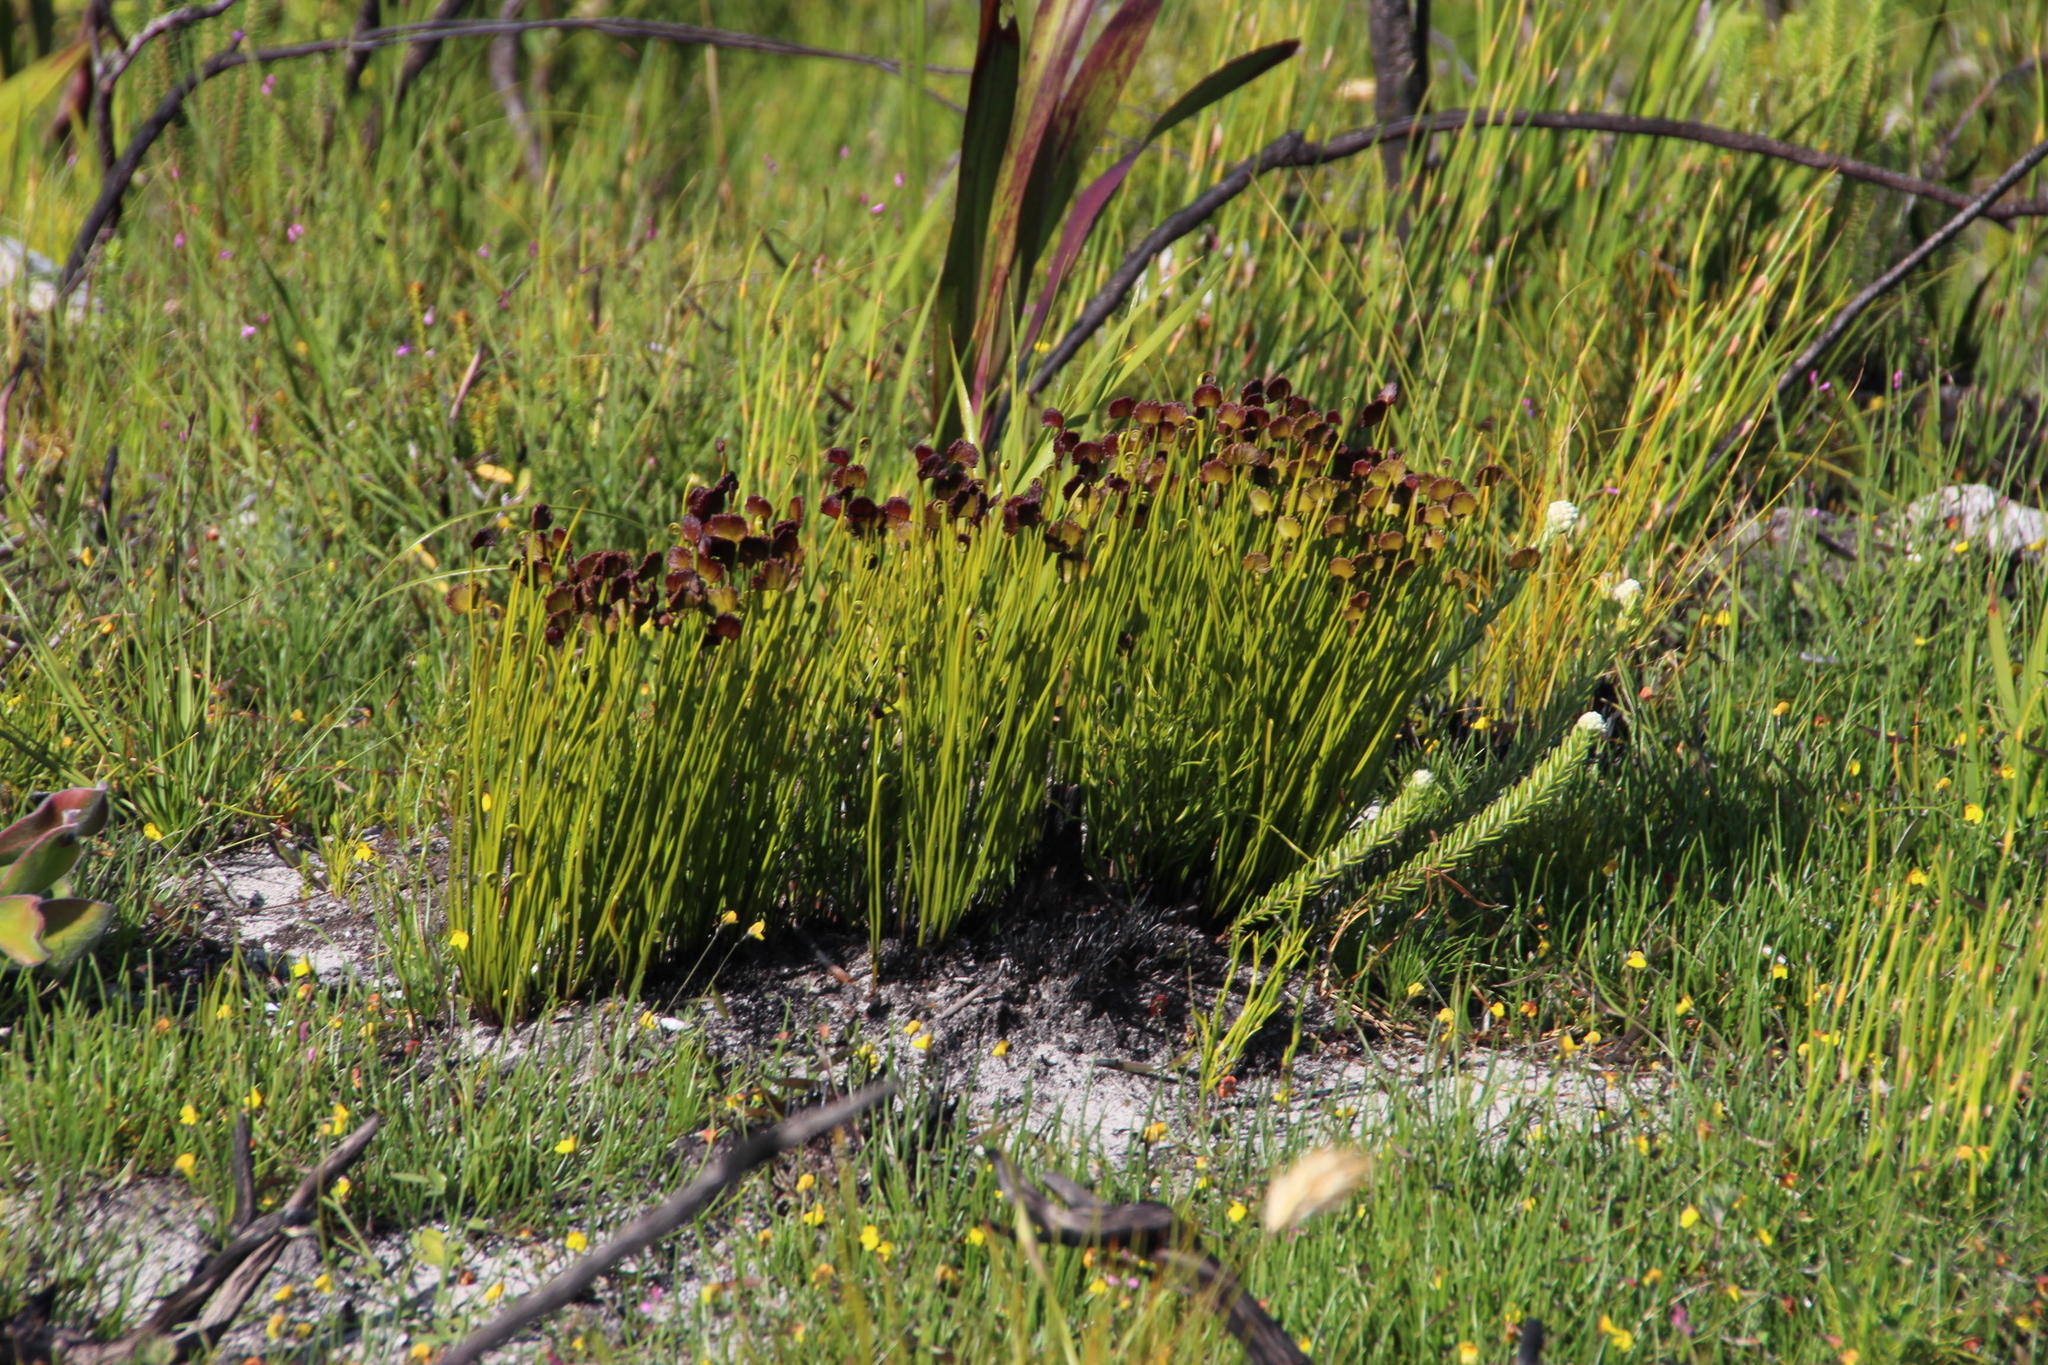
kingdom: Plantae
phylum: Tracheophyta
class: Polypodiopsida
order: Schizaeales
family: Schizaeaceae
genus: Schizaea
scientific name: Schizaea pectinata
